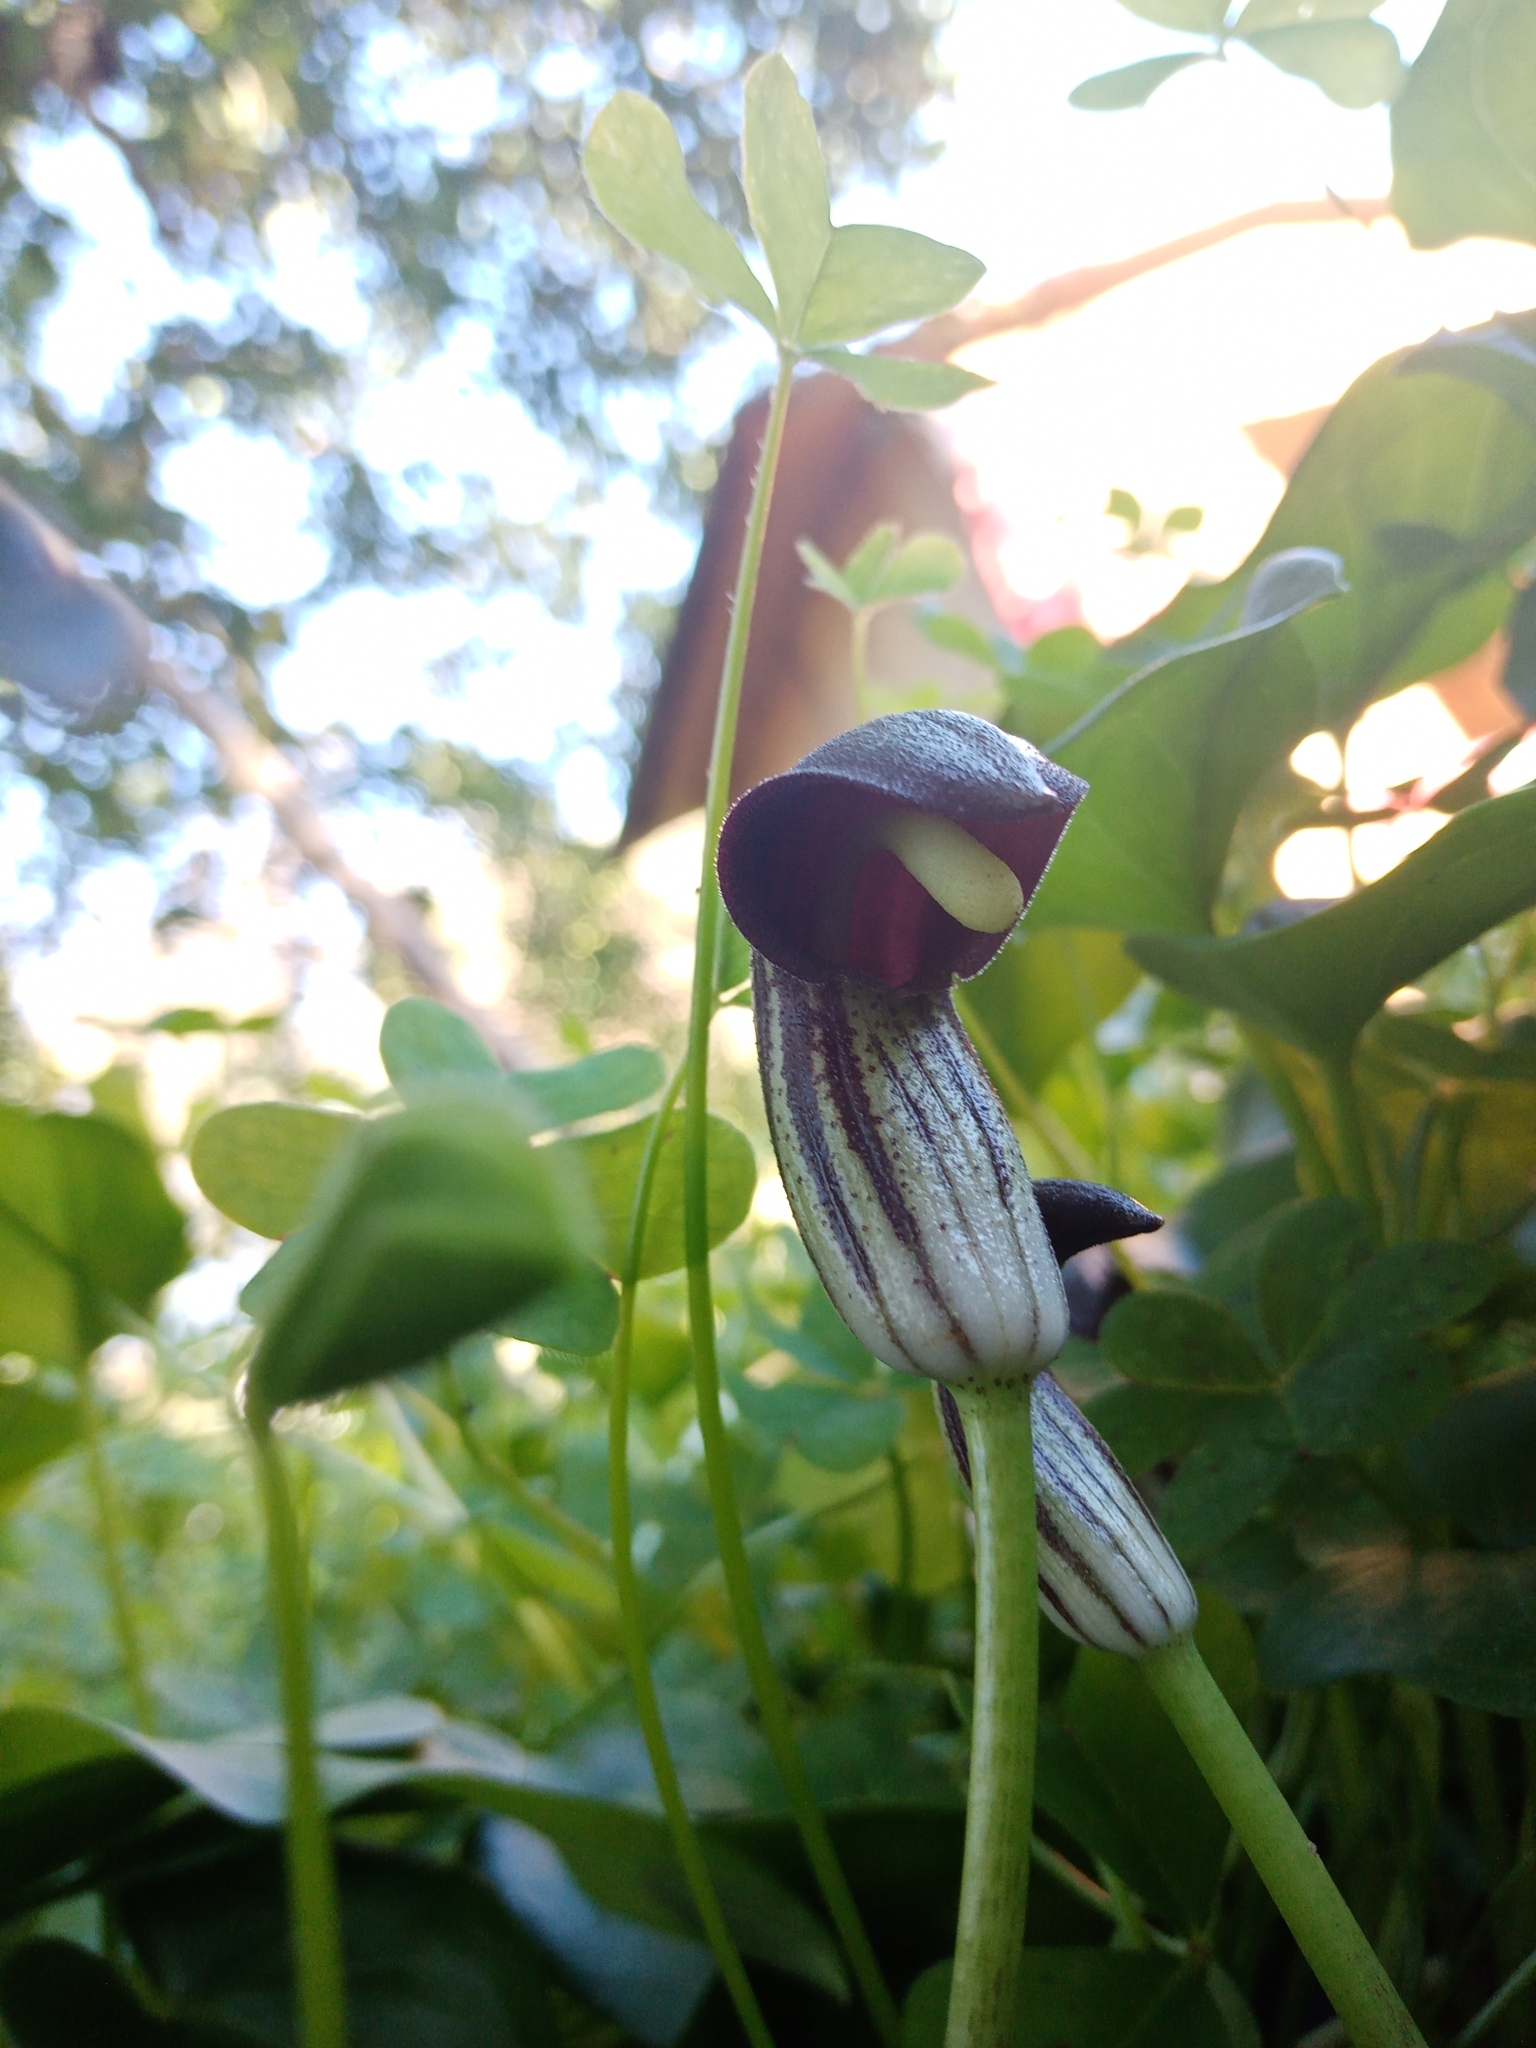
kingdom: Plantae
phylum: Tracheophyta
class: Liliopsida
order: Alismatales
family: Araceae
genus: Arisarum
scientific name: Arisarum simorrhinum
